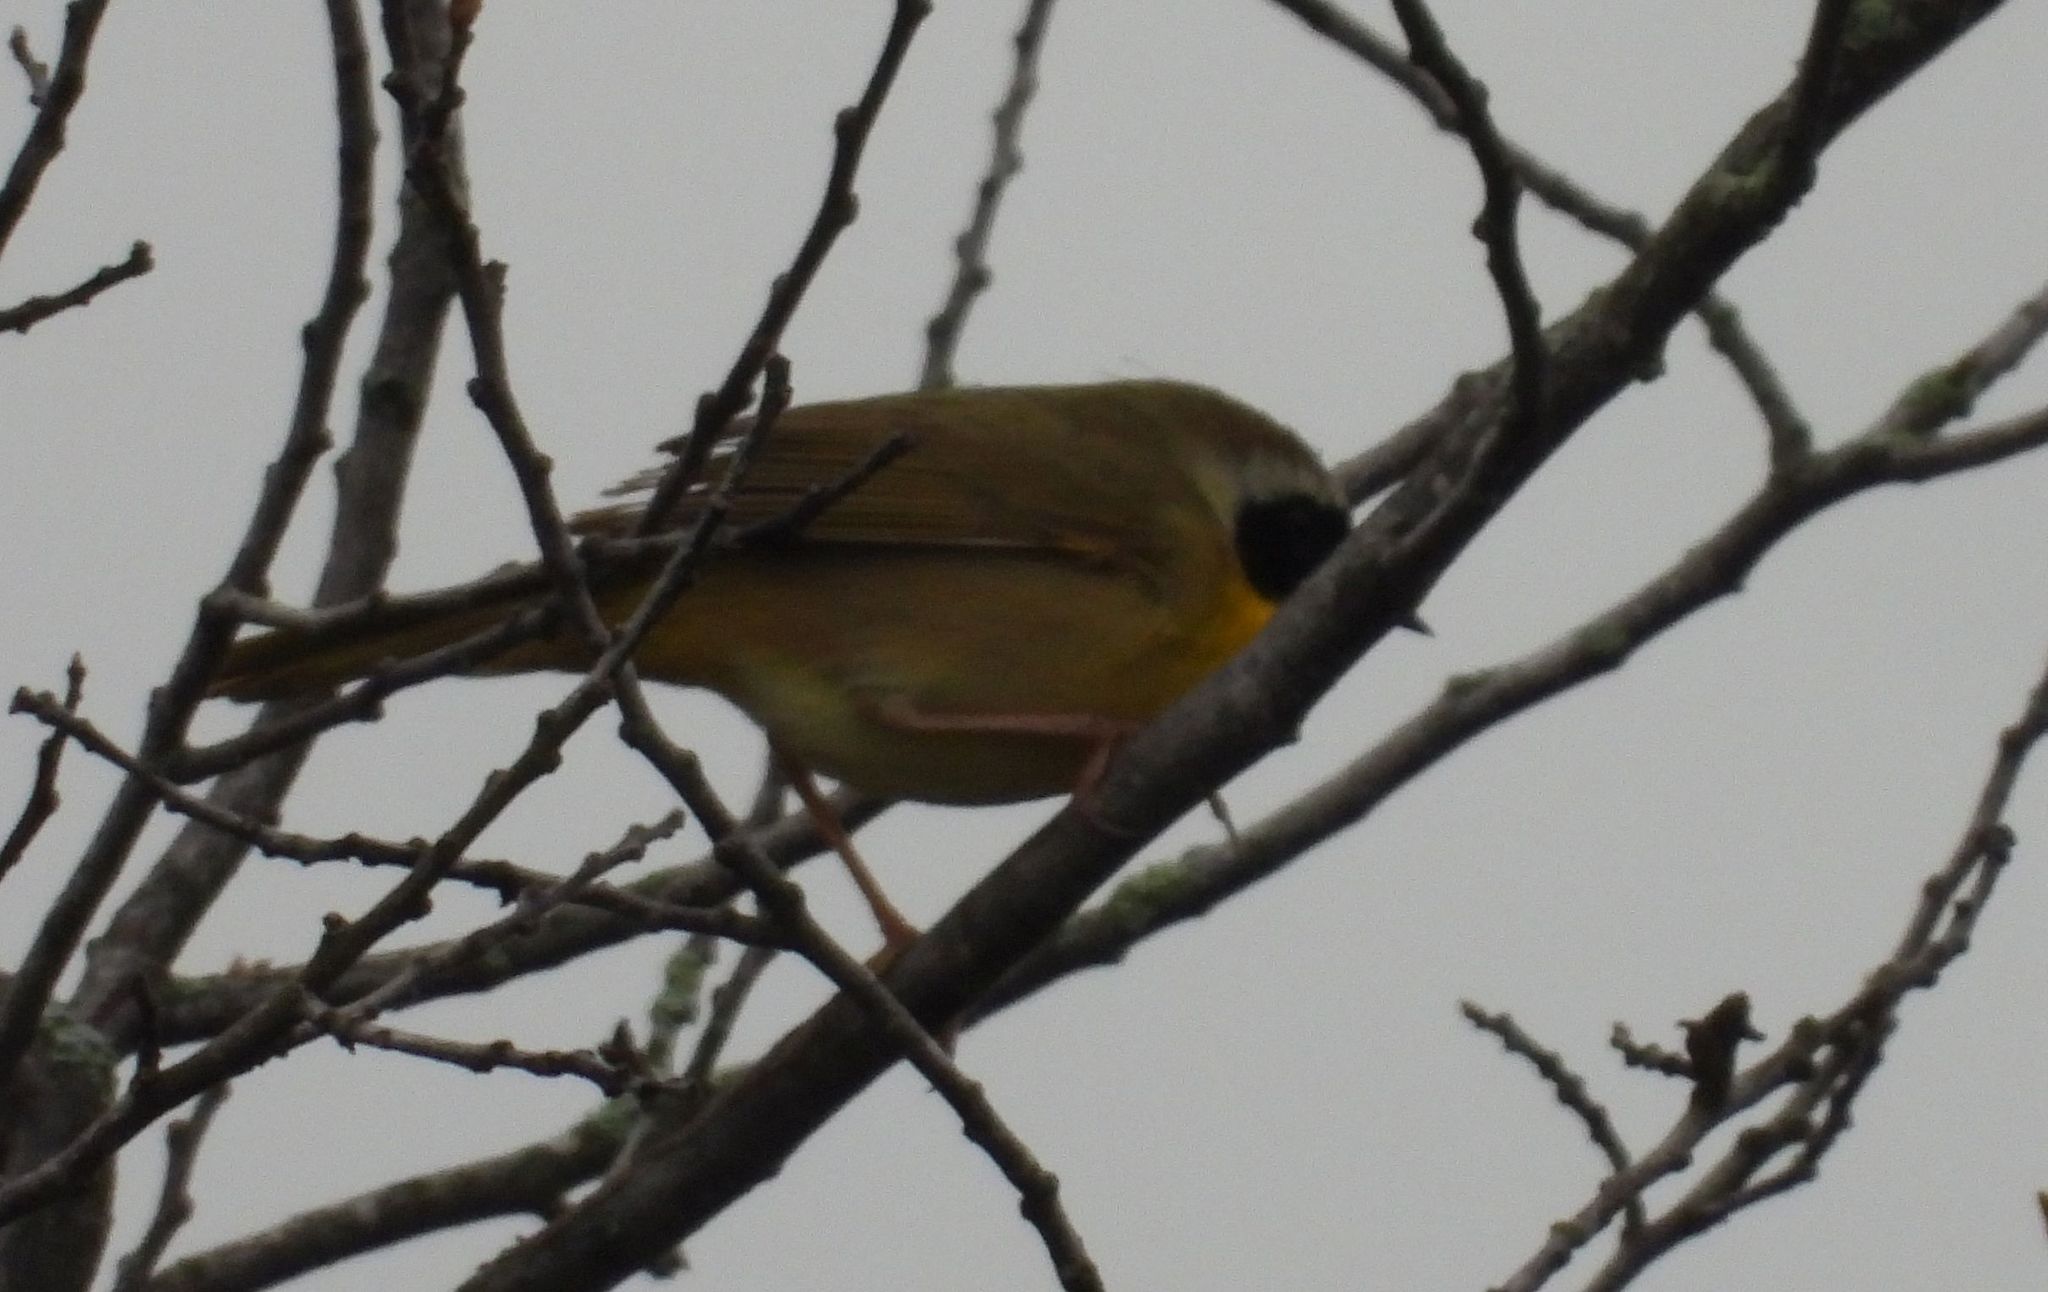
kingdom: Animalia
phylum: Chordata
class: Aves
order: Passeriformes
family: Parulidae
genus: Geothlypis
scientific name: Geothlypis trichas
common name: Common yellowthroat
